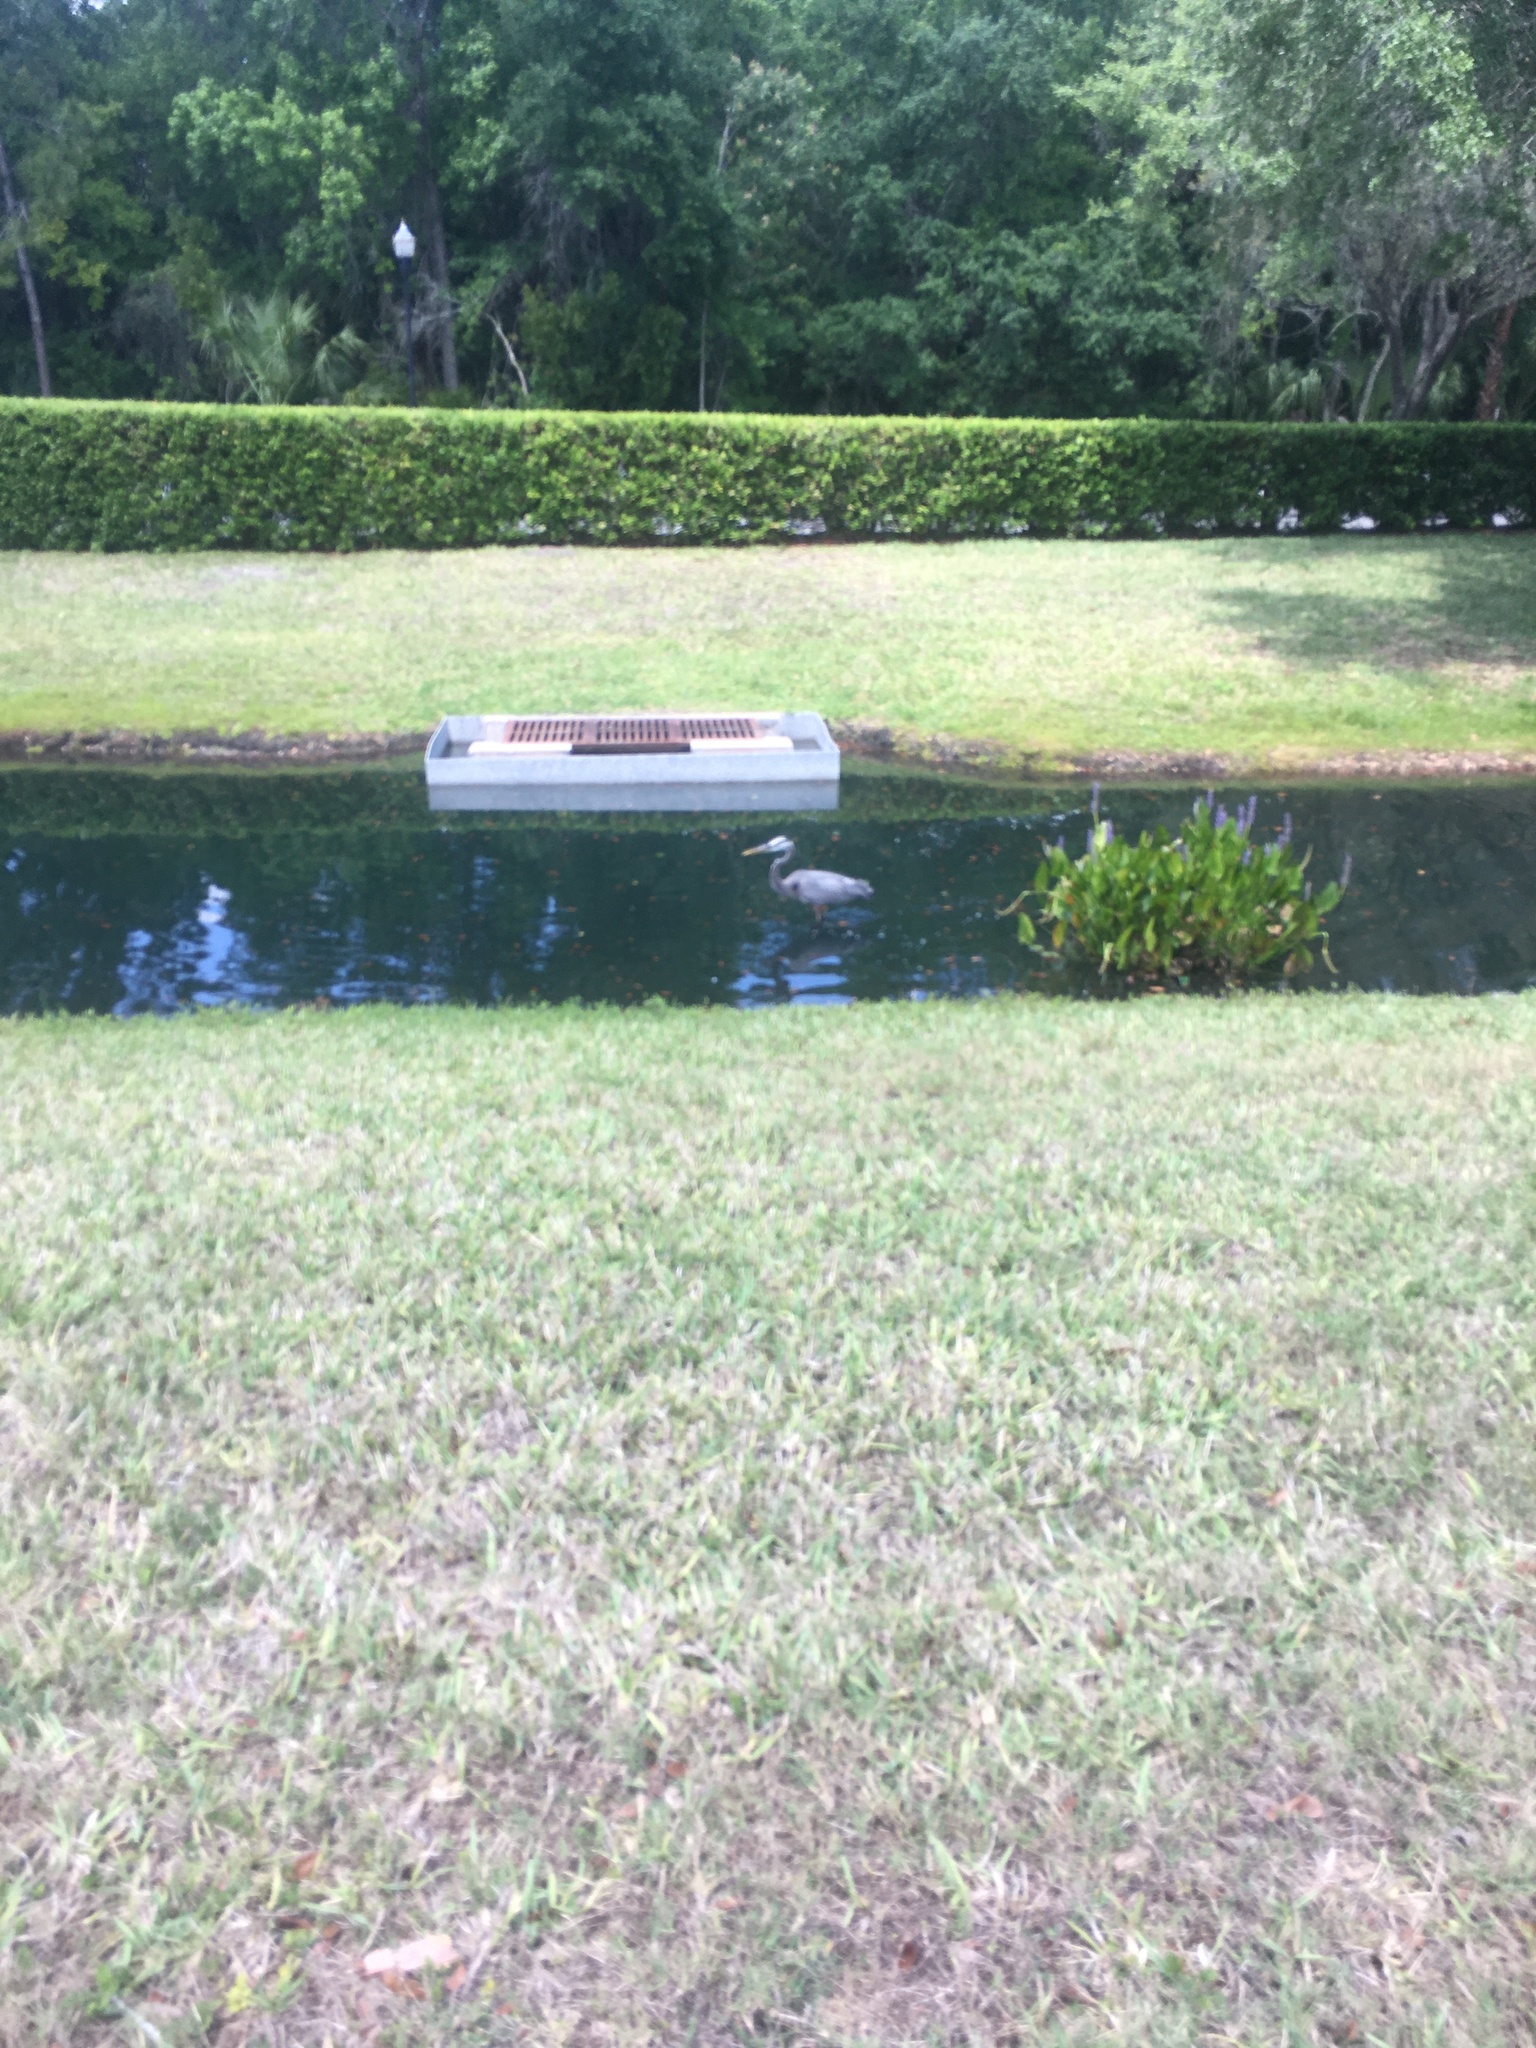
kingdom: Animalia
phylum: Chordata
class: Aves
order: Pelecaniformes
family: Ardeidae
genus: Ardea
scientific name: Ardea herodias
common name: Great blue heron
